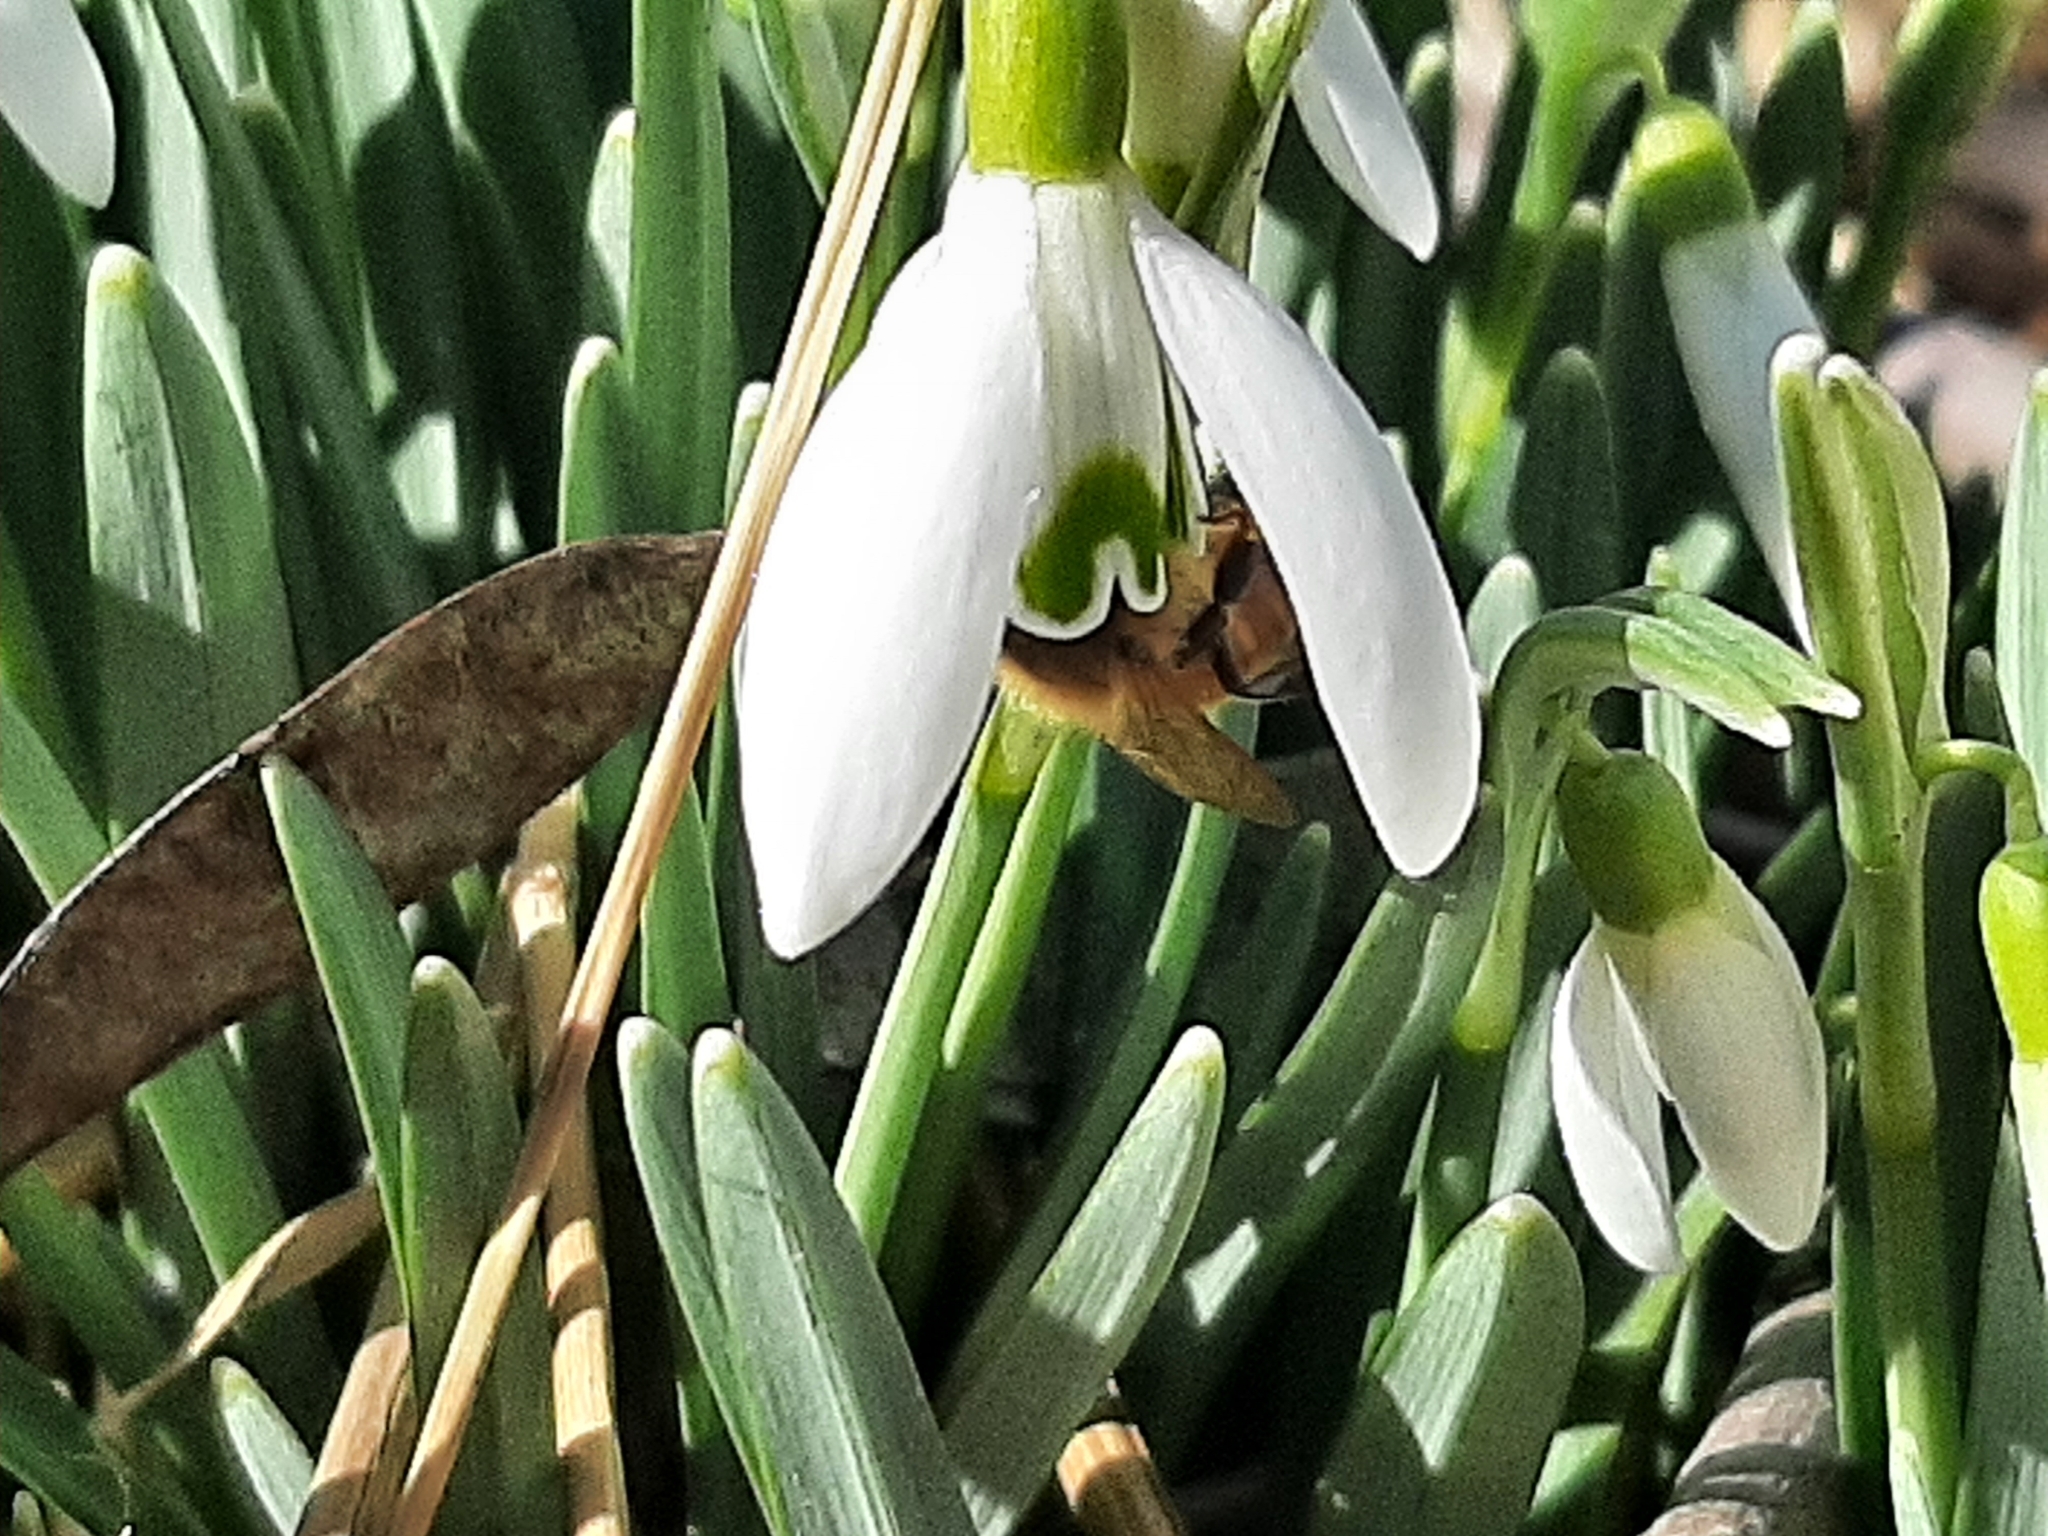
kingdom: Animalia
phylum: Arthropoda
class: Insecta
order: Hymenoptera
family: Apidae
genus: Apis
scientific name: Apis mellifera
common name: Honey bee
